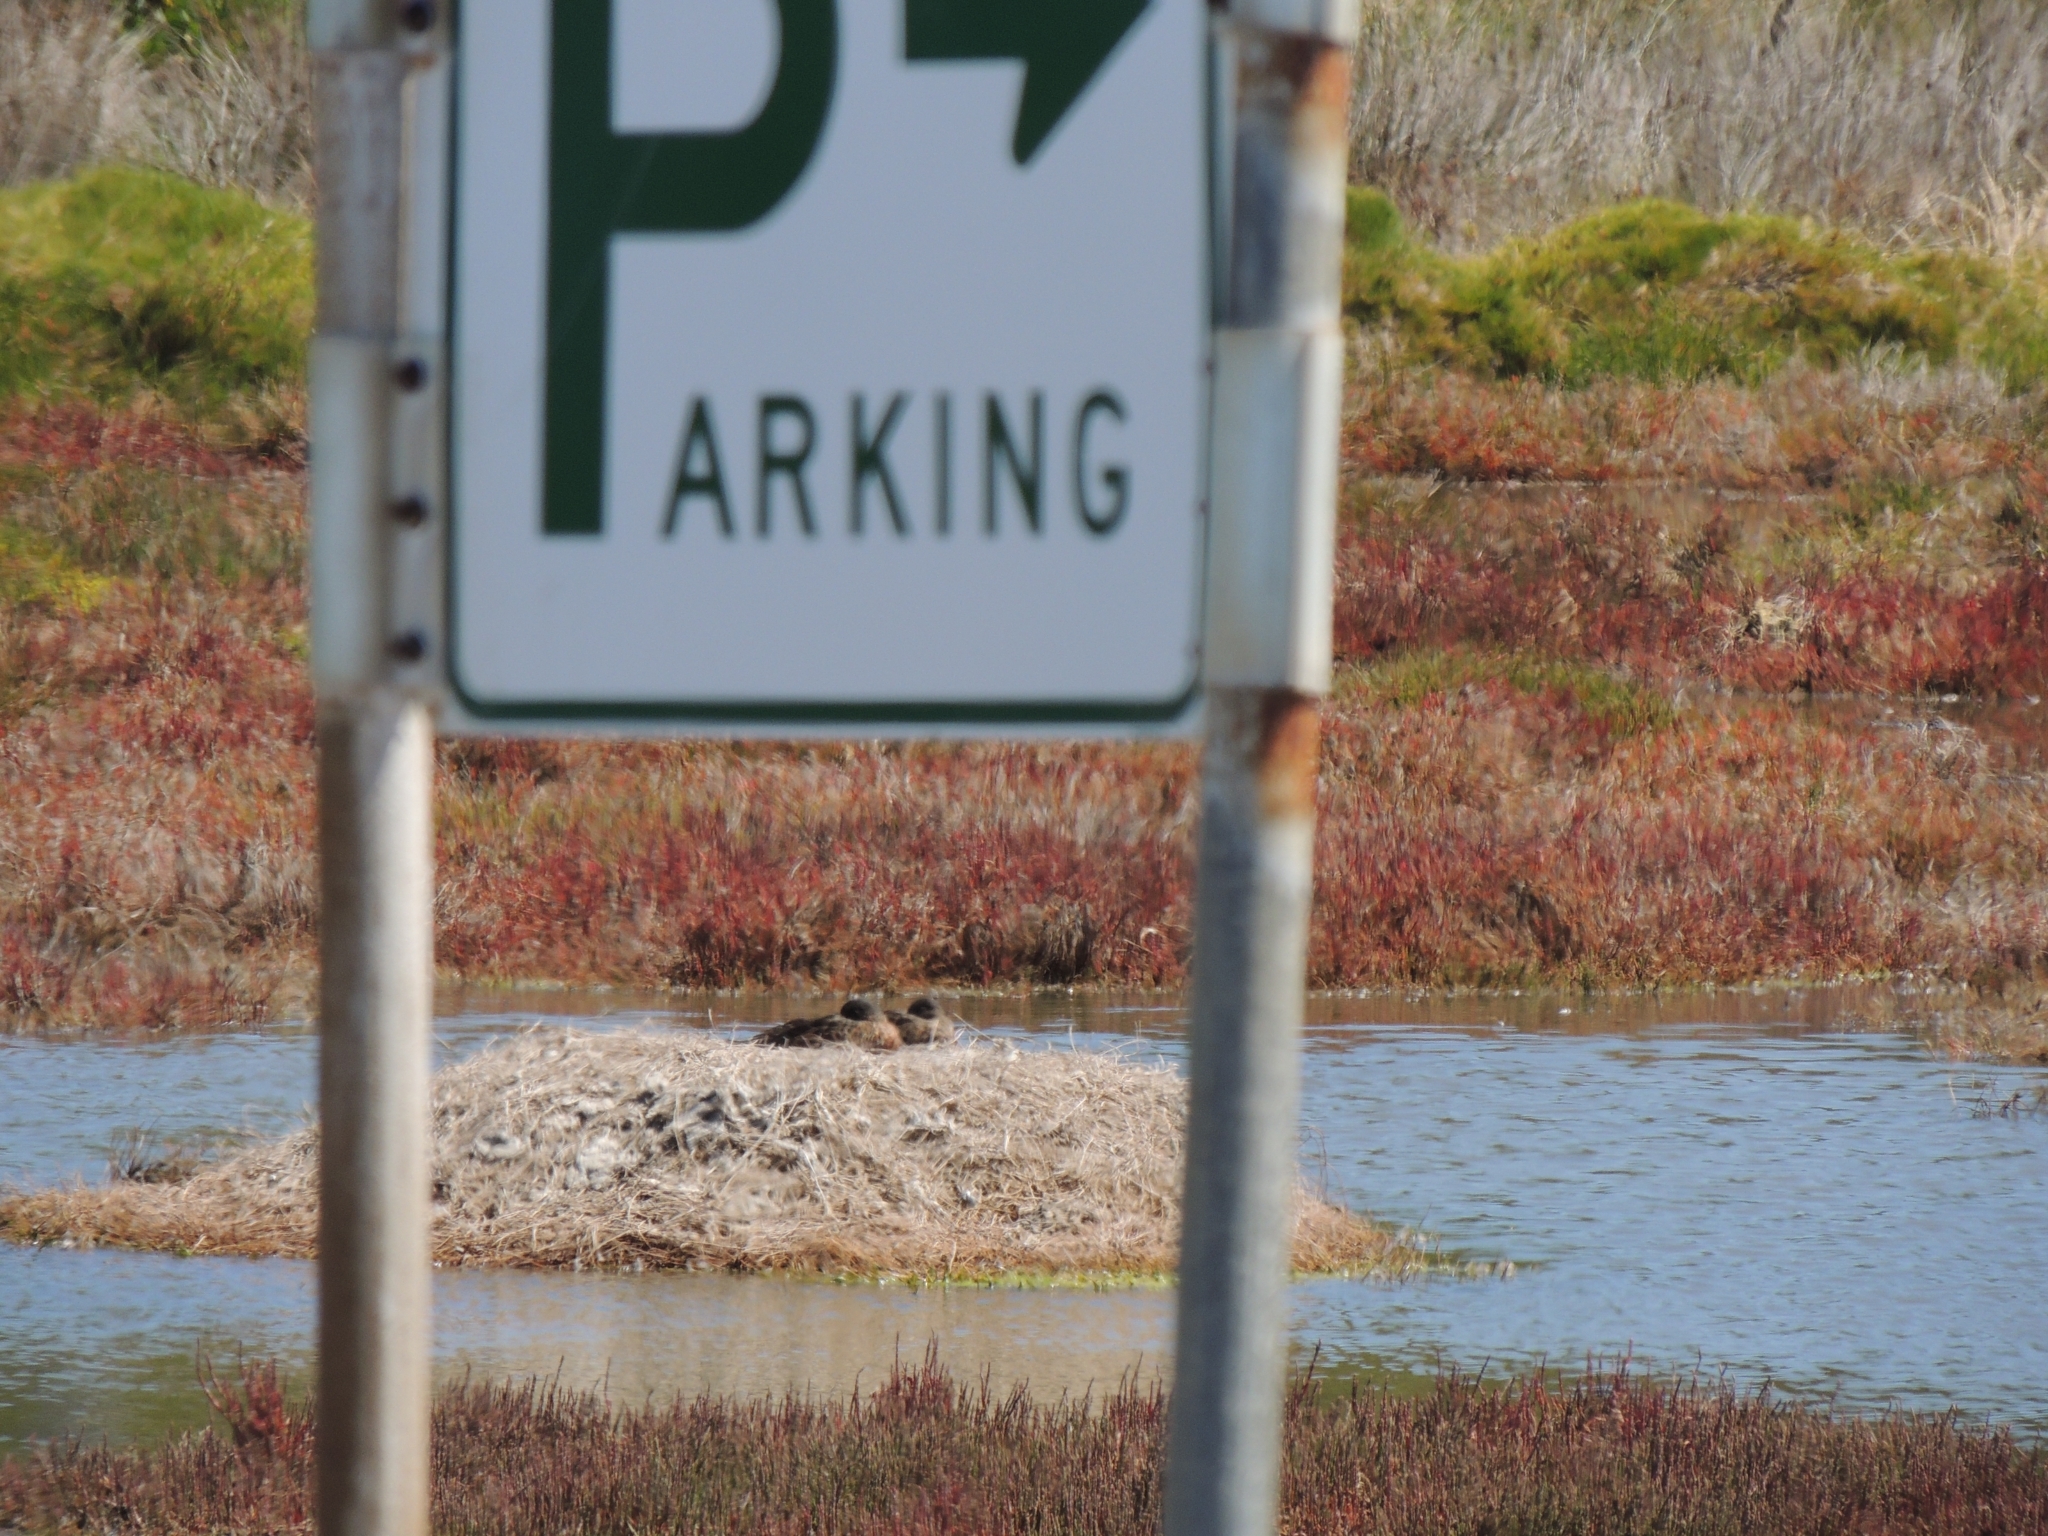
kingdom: Animalia
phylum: Chordata
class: Aves
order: Anseriformes
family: Anatidae
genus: Anas
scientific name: Anas castanea
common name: Chestnut teal
